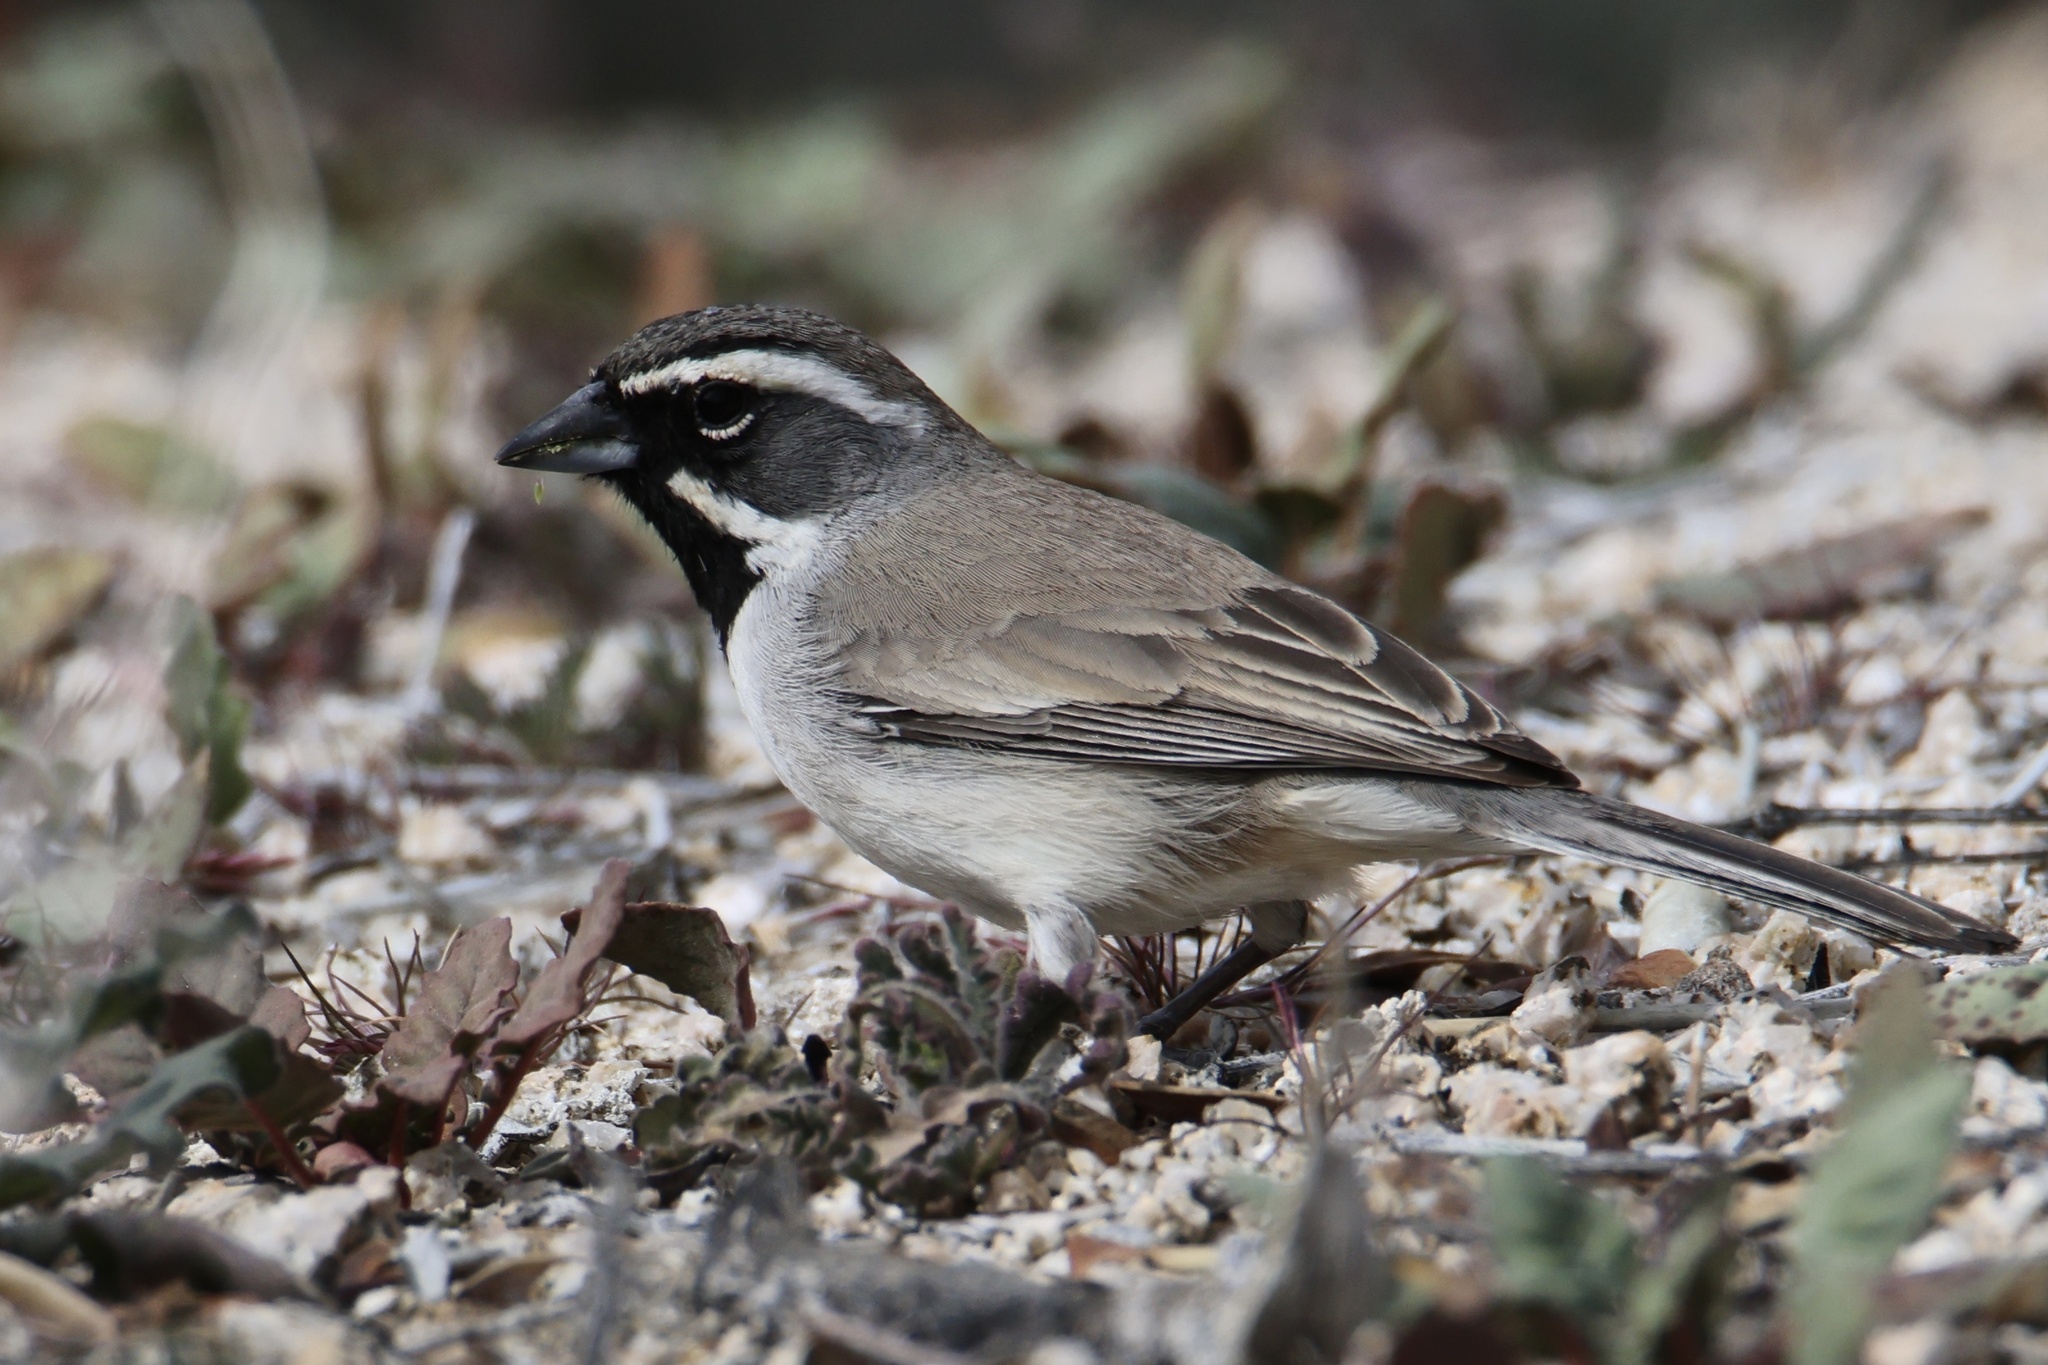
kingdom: Animalia
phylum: Chordata
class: Aves
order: Passeriformes
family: Passerellidae
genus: Amphispiza
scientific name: Amphispiza bilineata
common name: Black-throated sparrow
